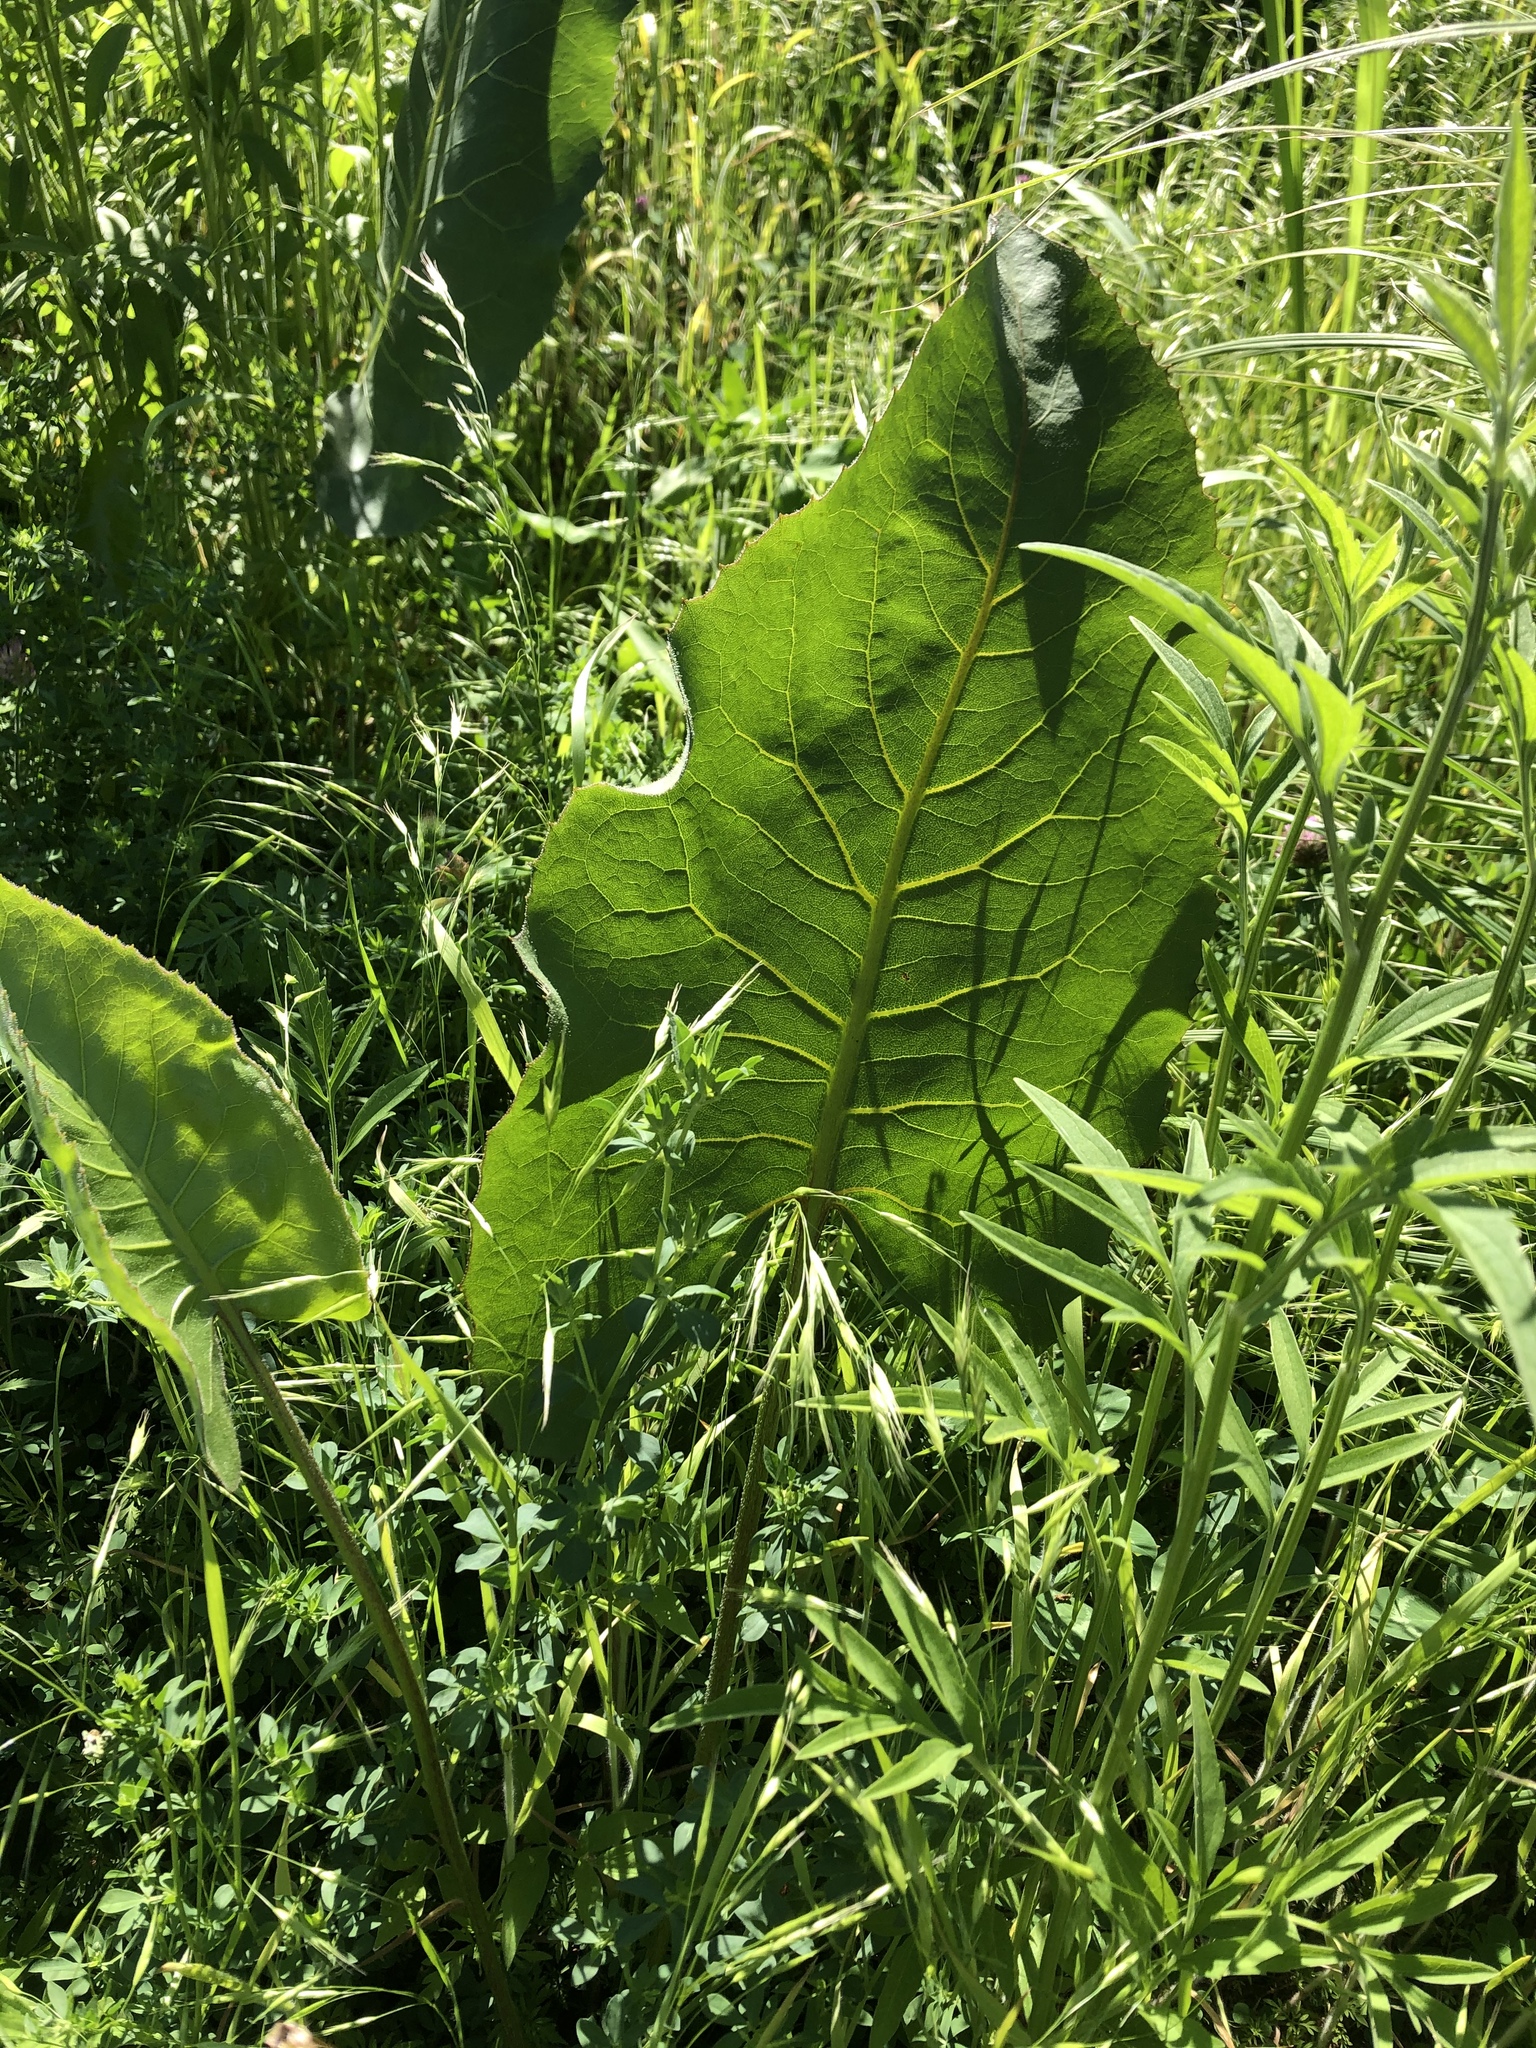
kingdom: Plantae
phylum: Tracheophyta
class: Magnoliopsida
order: Asterales
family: Asteraceae
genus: Silphium
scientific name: Silphium terebinthinaceum
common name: Basal-leaf rosinweed
